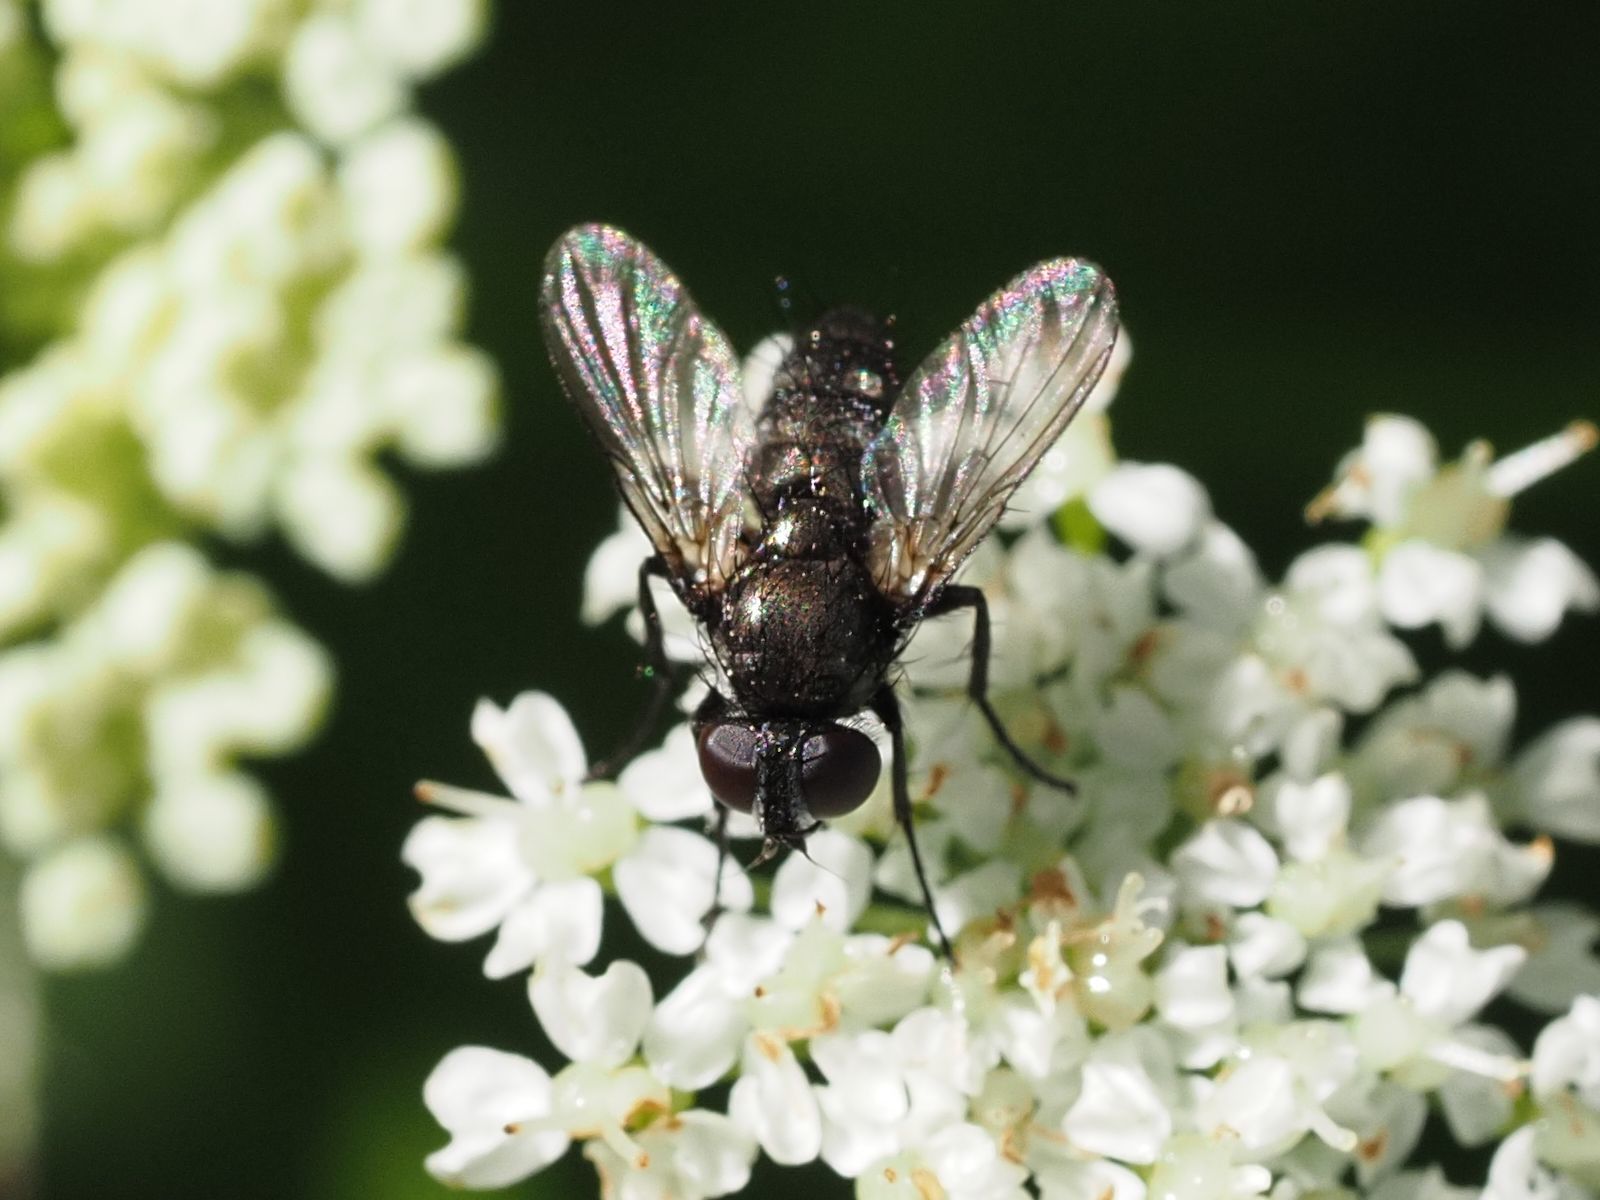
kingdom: Animalia
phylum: Arthropoda
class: Insecta
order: Diptera
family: Calliphoridae
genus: Rhinophora
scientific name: Rhinophora lepida
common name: Pouting woodlouse-fly
